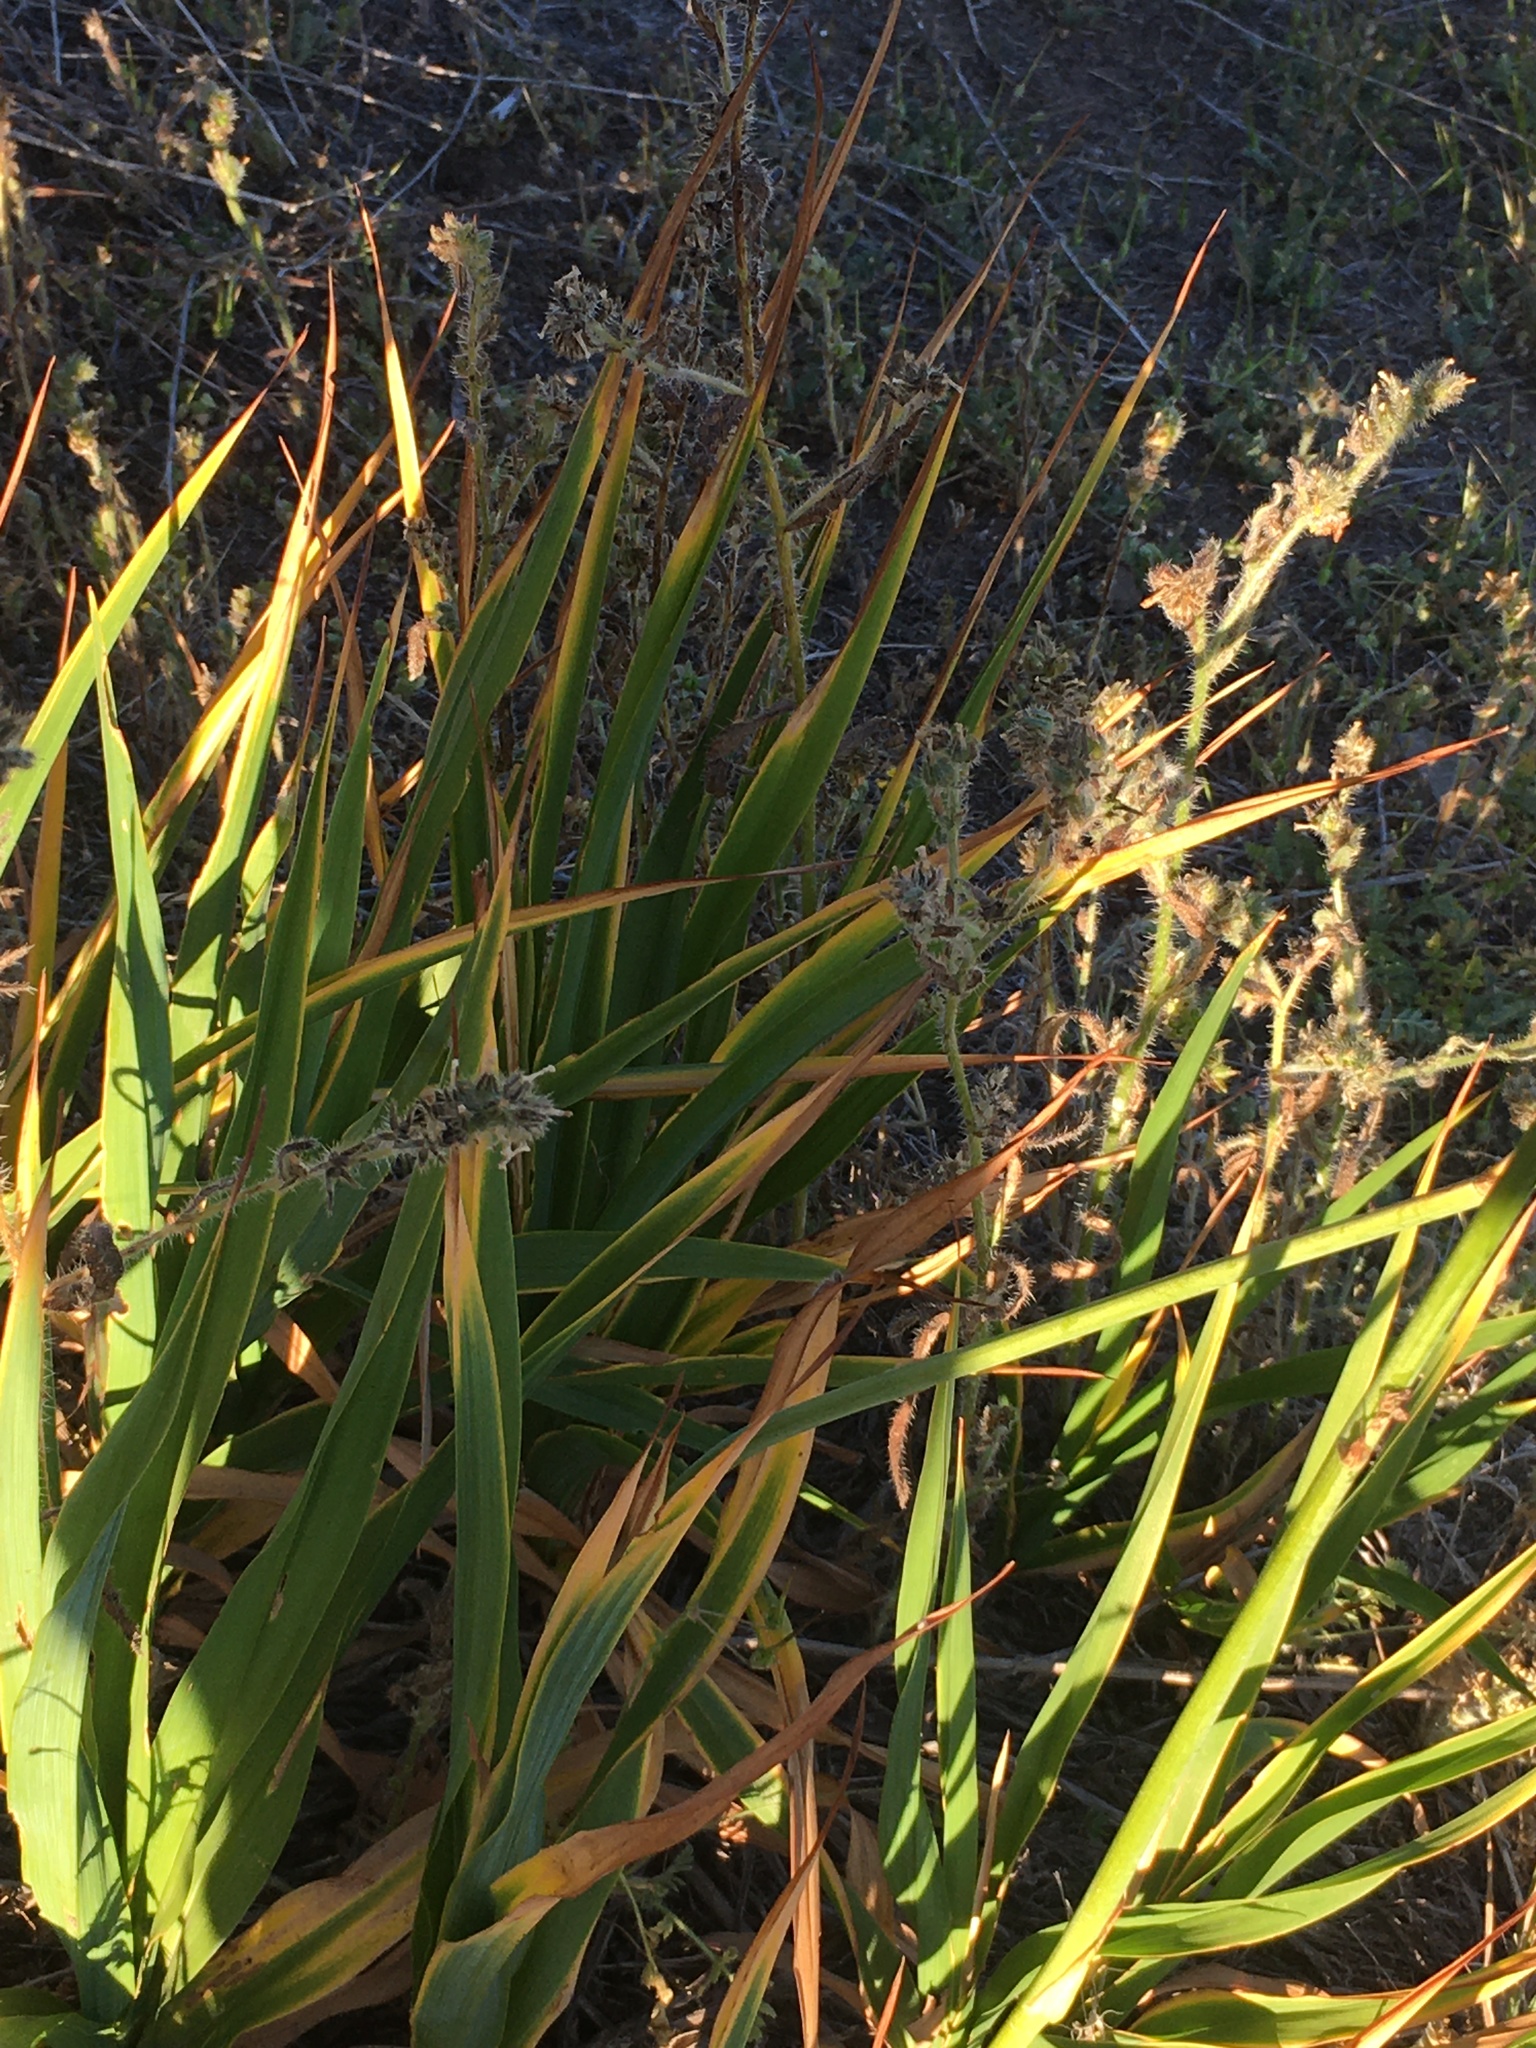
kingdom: Plantae
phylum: Tracheophyta
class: Liliopsida
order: Asparagales
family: Asphodelaceae
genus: Pasithea
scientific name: Pasithea caerulea
